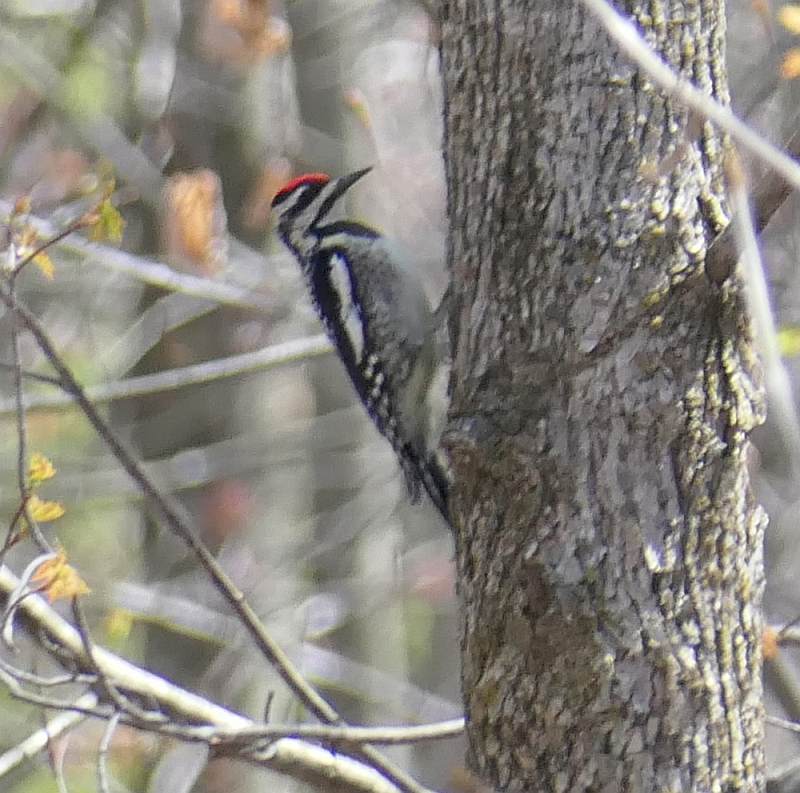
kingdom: Animalia
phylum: Chordata
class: Aves
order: Piciformes
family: Picidae
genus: Sphyrapicus
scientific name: Sphyrapicus varius
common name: Yellow-bellied sapsucker
